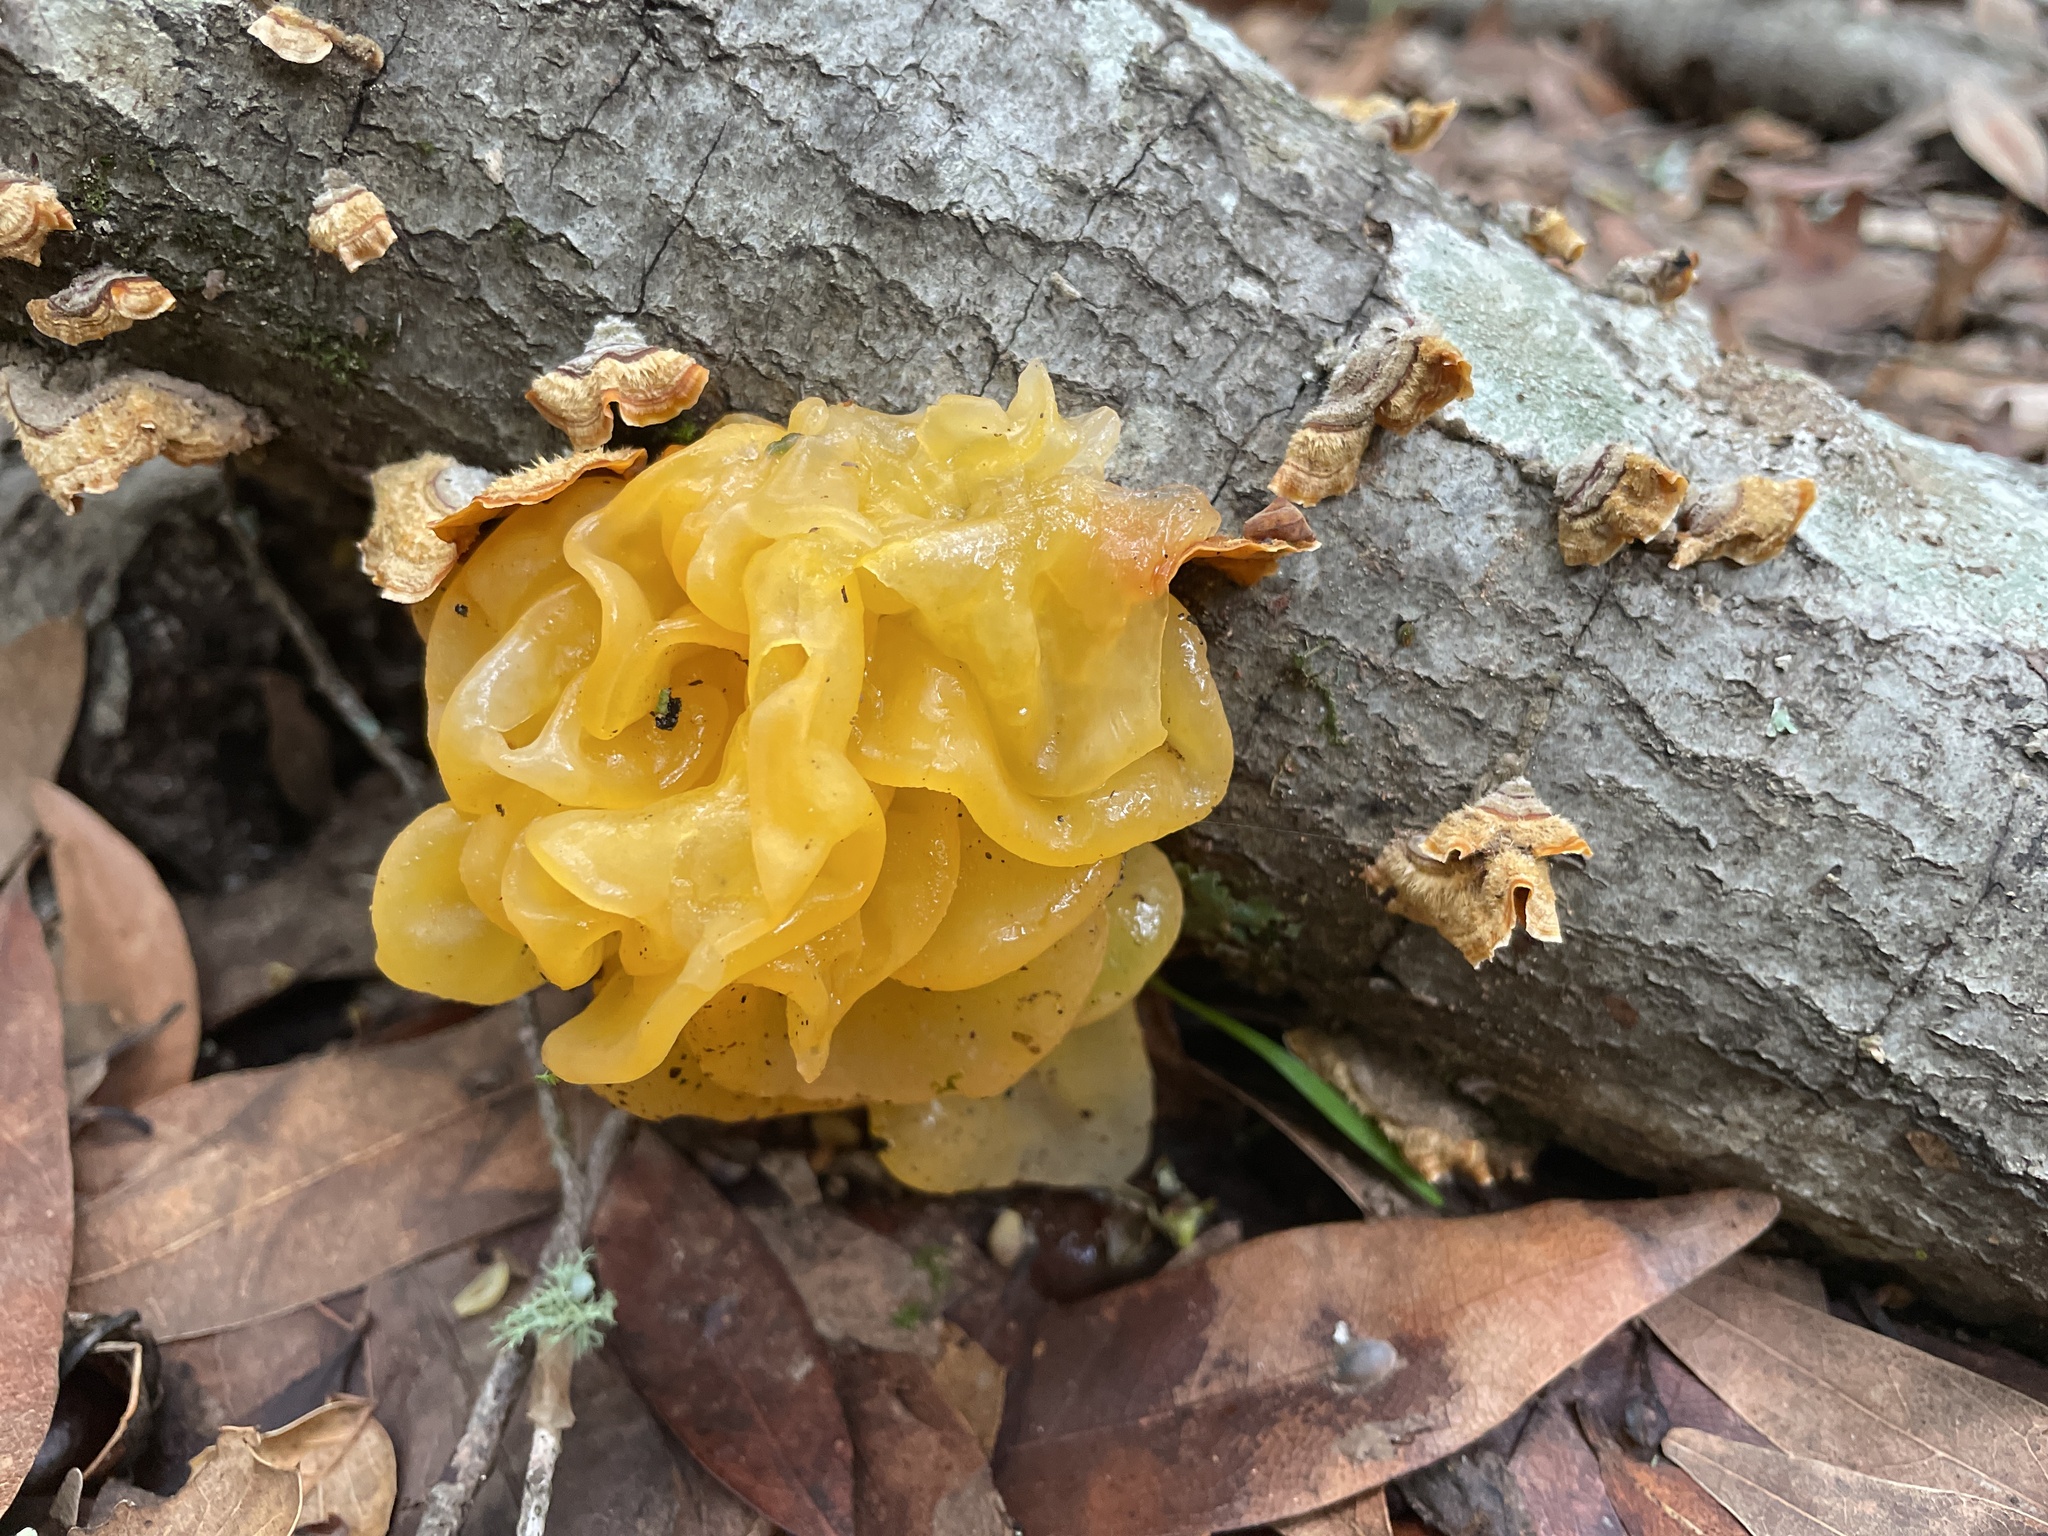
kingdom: Fungi
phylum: Basidiomycota
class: Tremellomycetes
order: Tremellales
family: Naemateliaceae
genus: Naematelia
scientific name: Naematelia aurantia
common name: Golden ear
